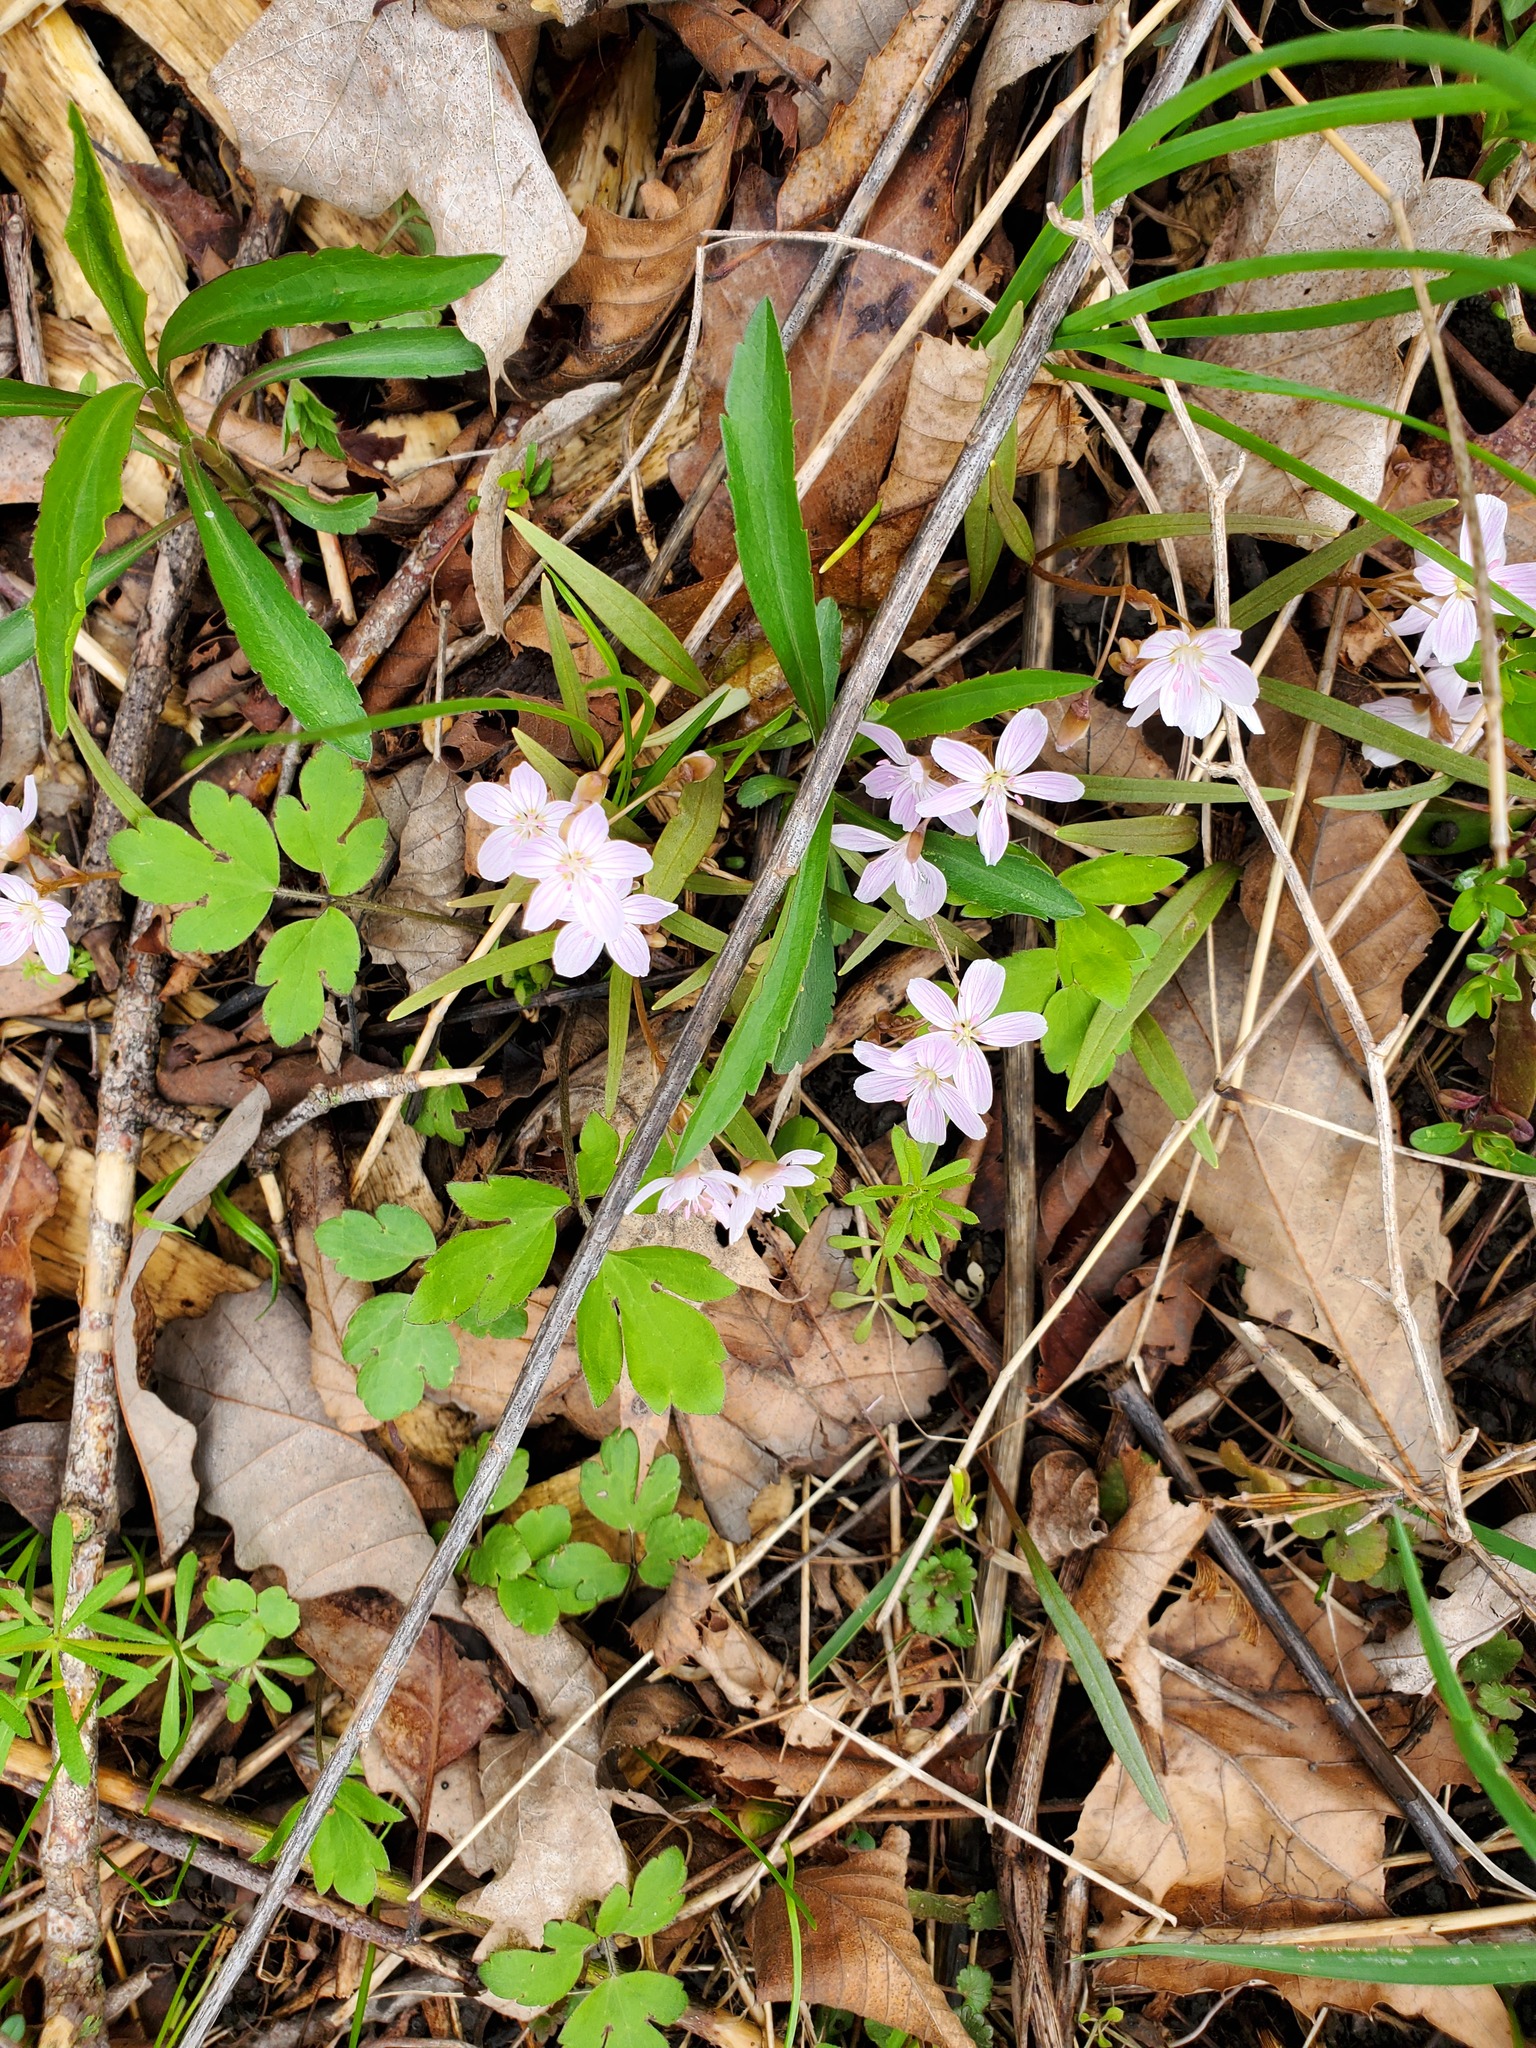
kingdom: Plantae
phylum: Tracheophyta
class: Magnoliopsida
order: Caryophyllales
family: Montiaceae
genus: Claytonia
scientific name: Claytonia virginica
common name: Virginia springbeauty
